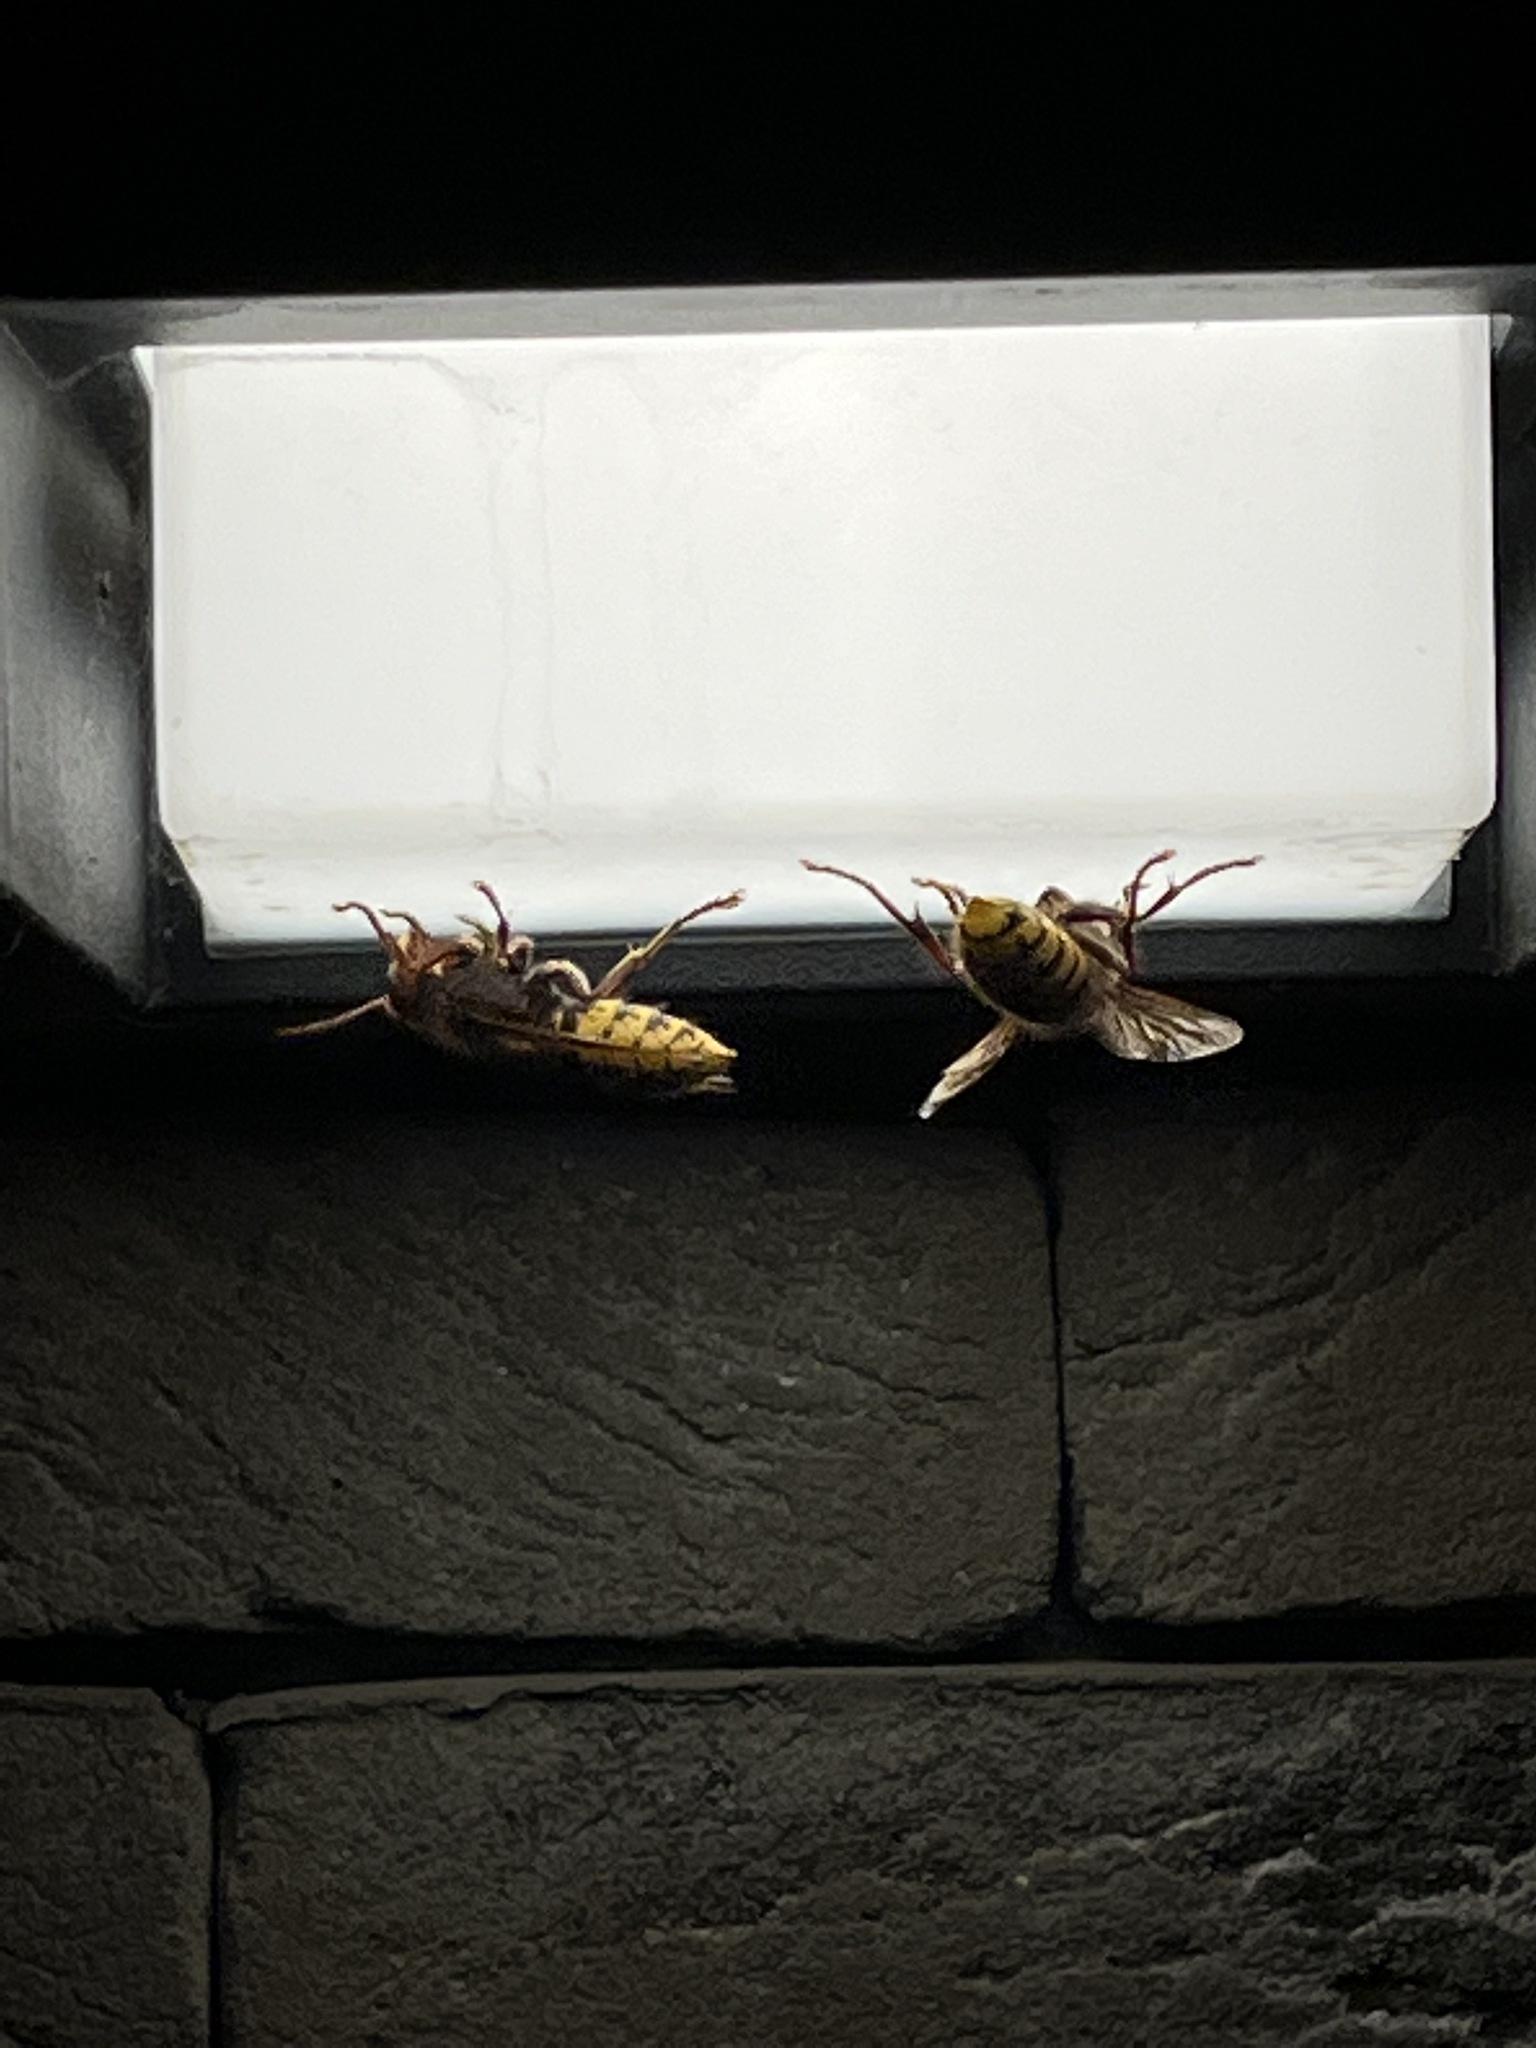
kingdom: Animalia
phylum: Arthropoda
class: Insecta
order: Hymenoptera
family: Vespidae
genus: Vespa
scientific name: Vespa crabro
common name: Hornet
